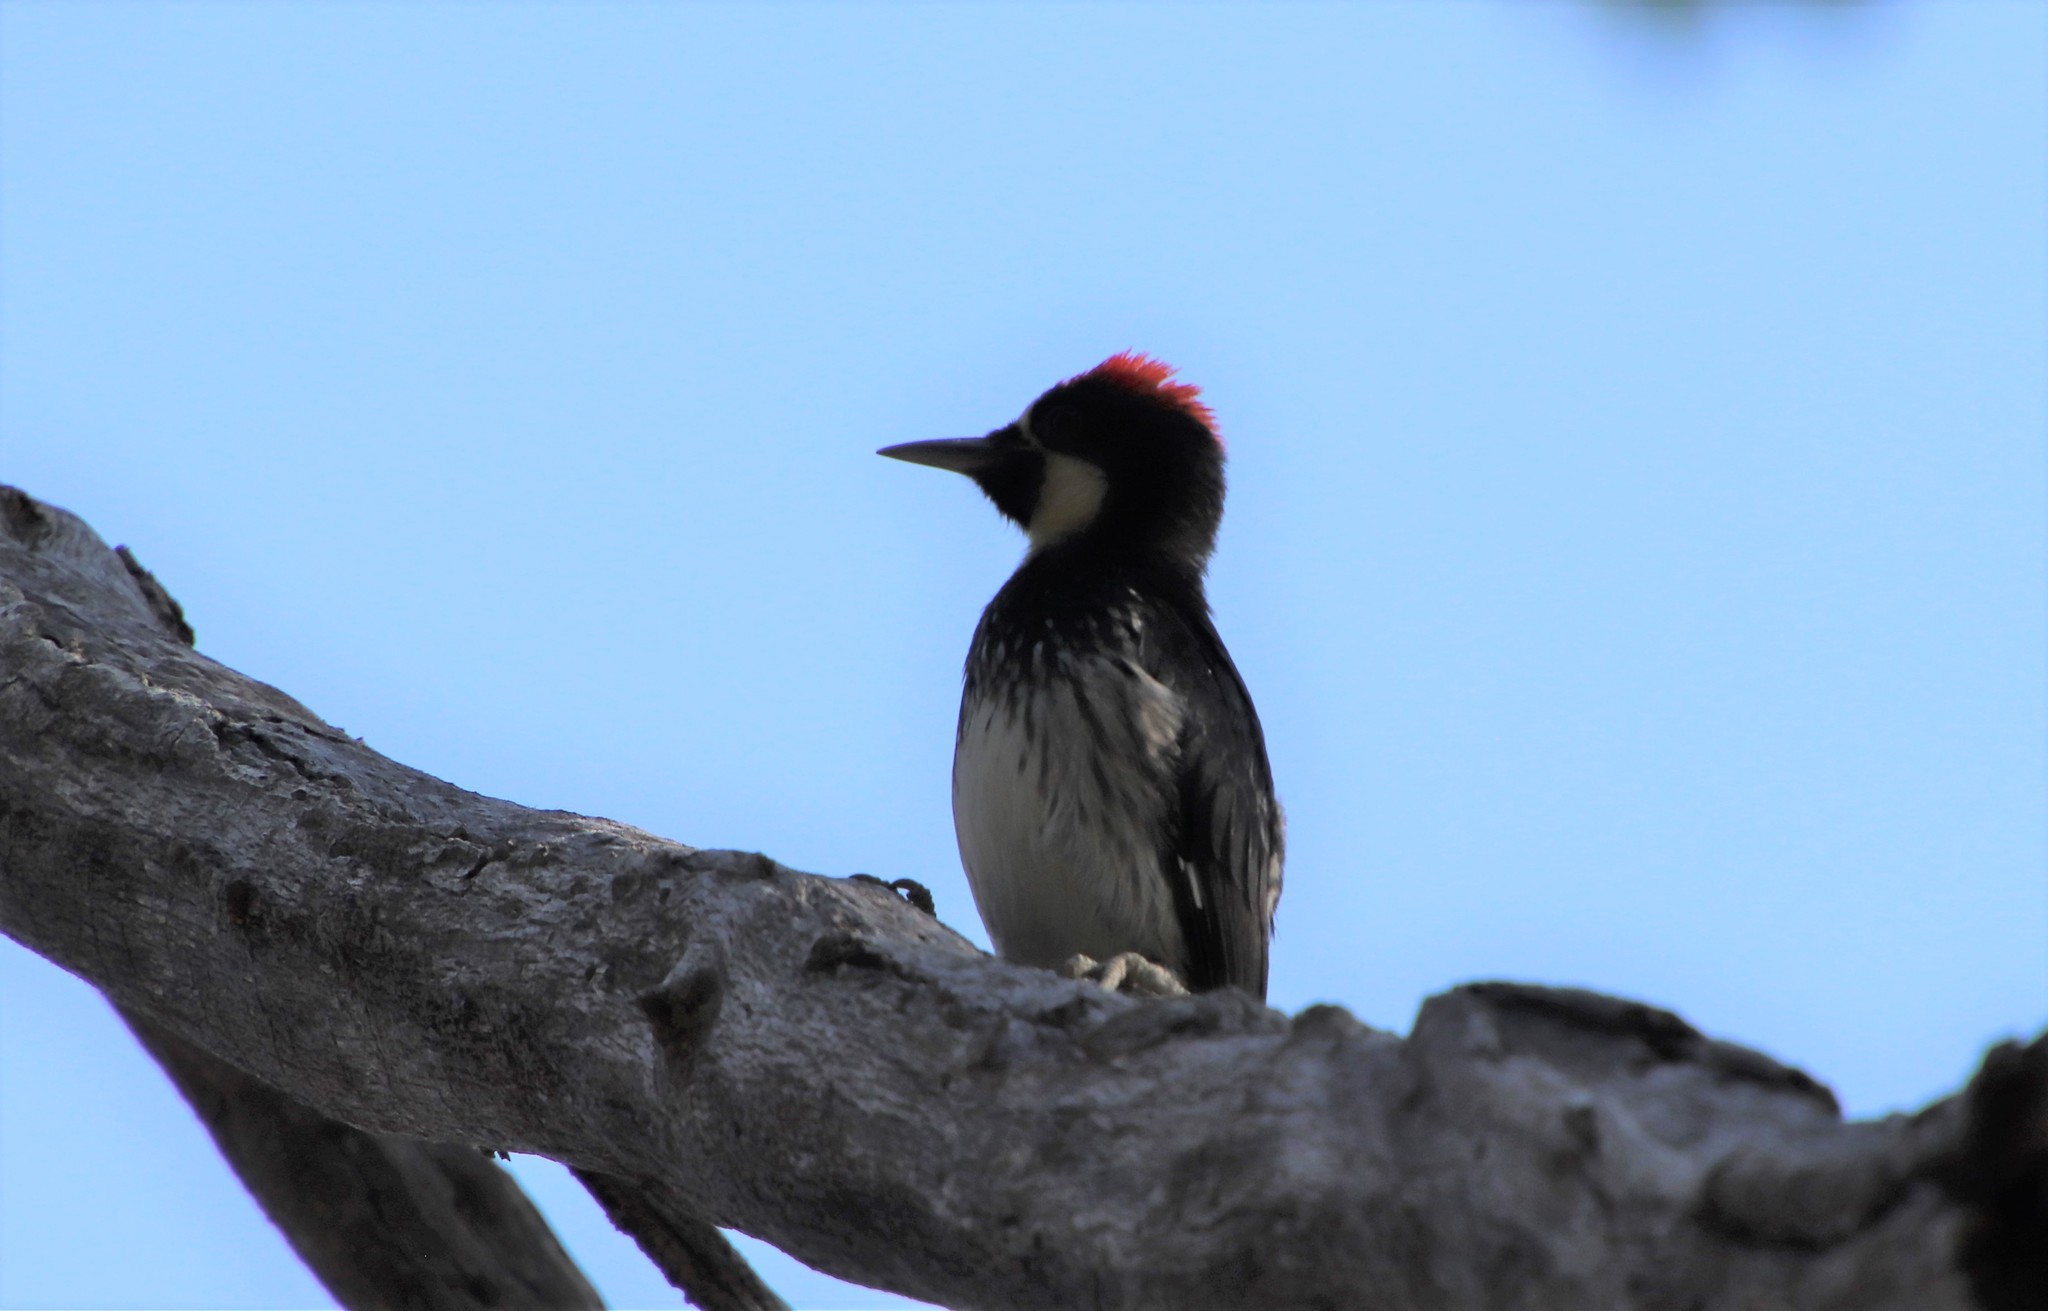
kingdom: Animalia
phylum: Chordata
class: Aves
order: Piciformes
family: Picidae
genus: Melanerpes
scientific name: Melanerpes formicivorus
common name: Acorn woodpecker
